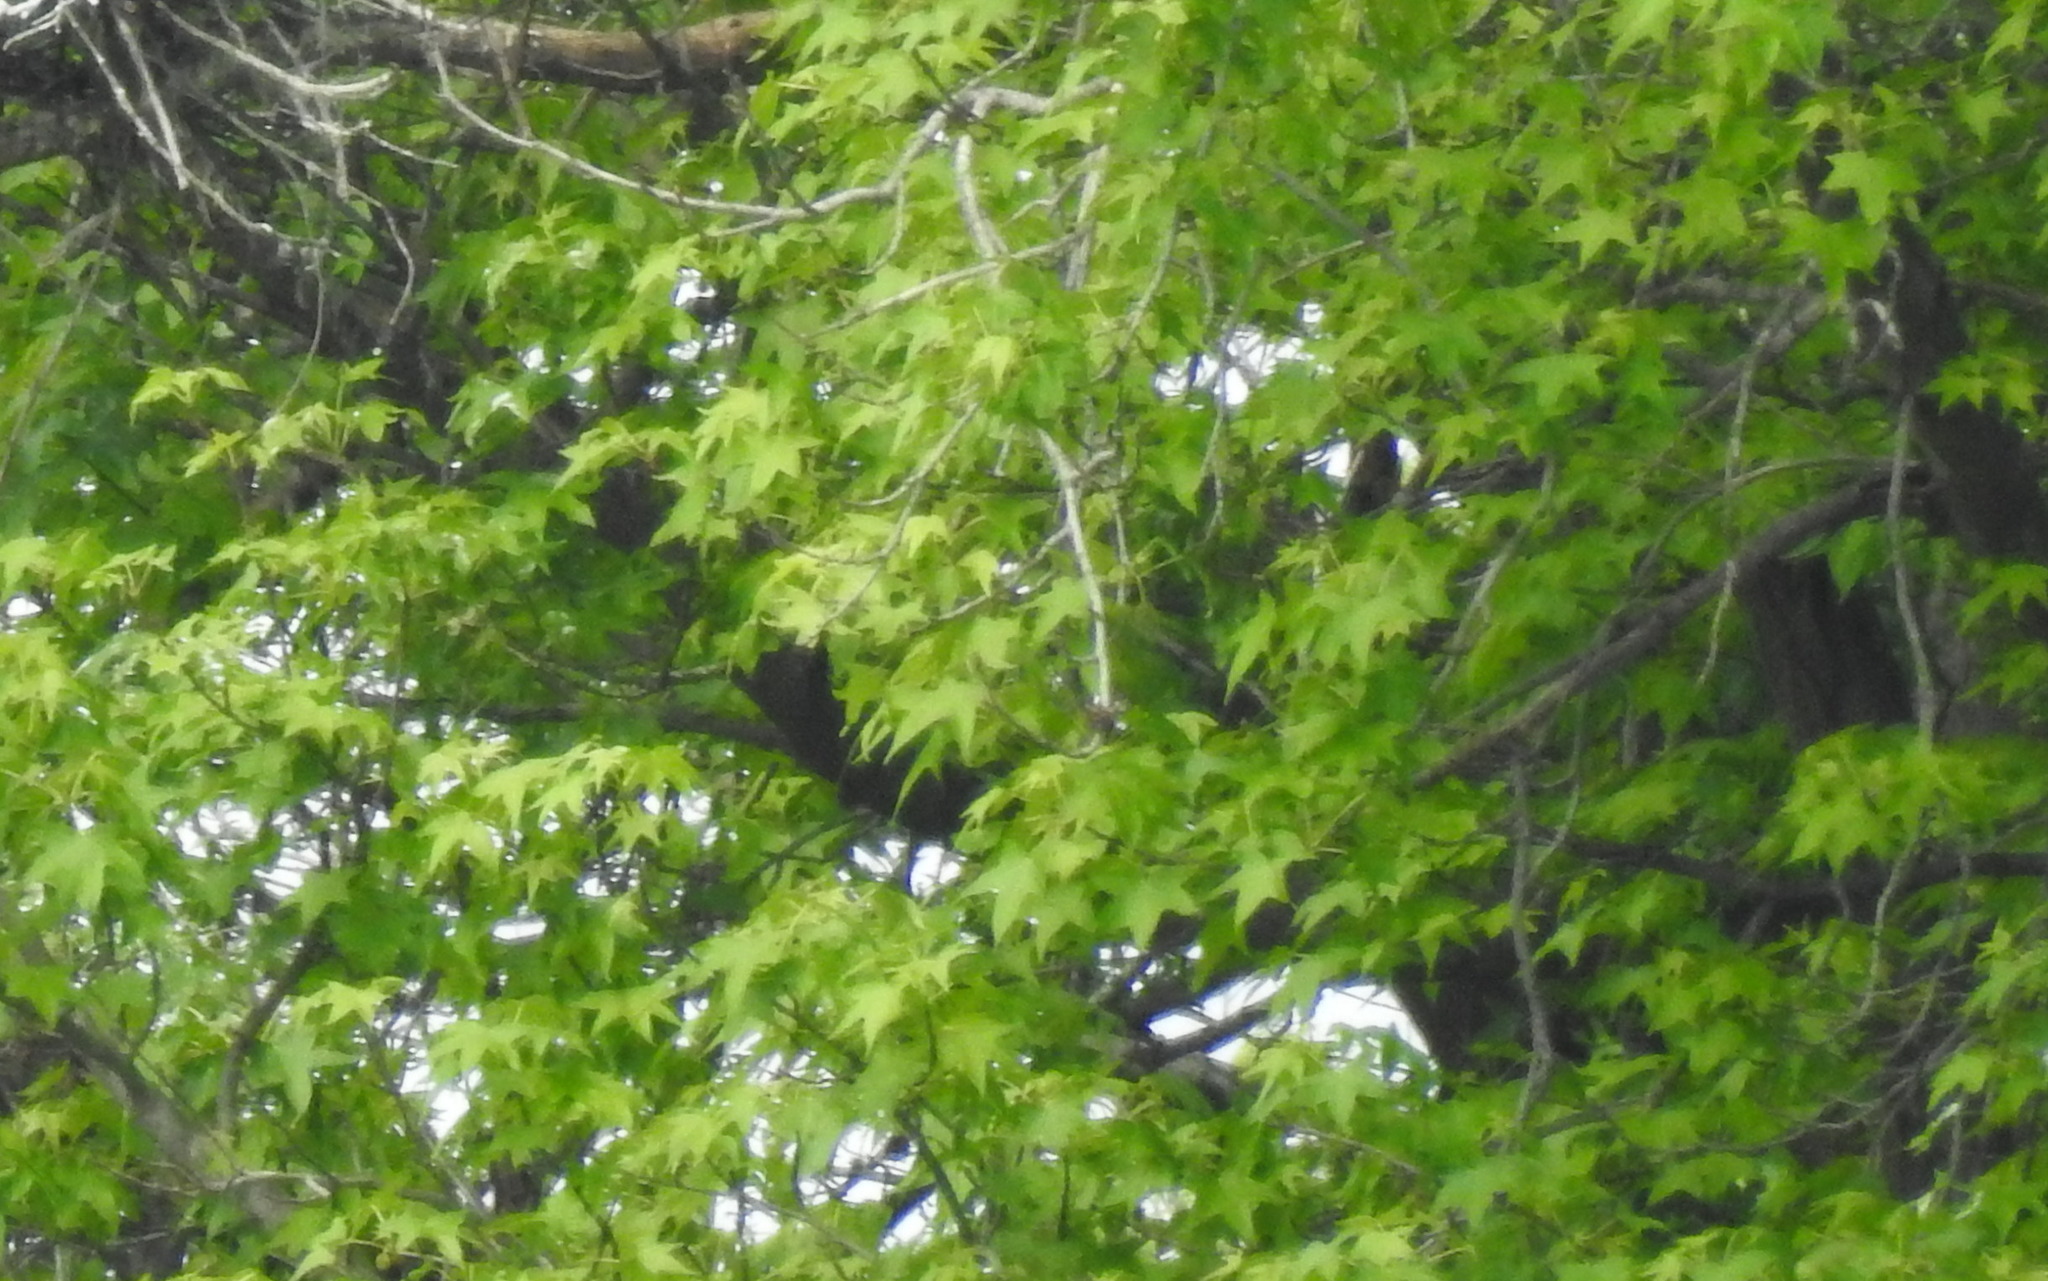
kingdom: Plantae
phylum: Tracheophyta
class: Magnoliopsida
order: Saxifragales
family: Altingiaceae
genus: Liquidambar
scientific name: Liquidambar styraciflua
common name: Sweet gum
